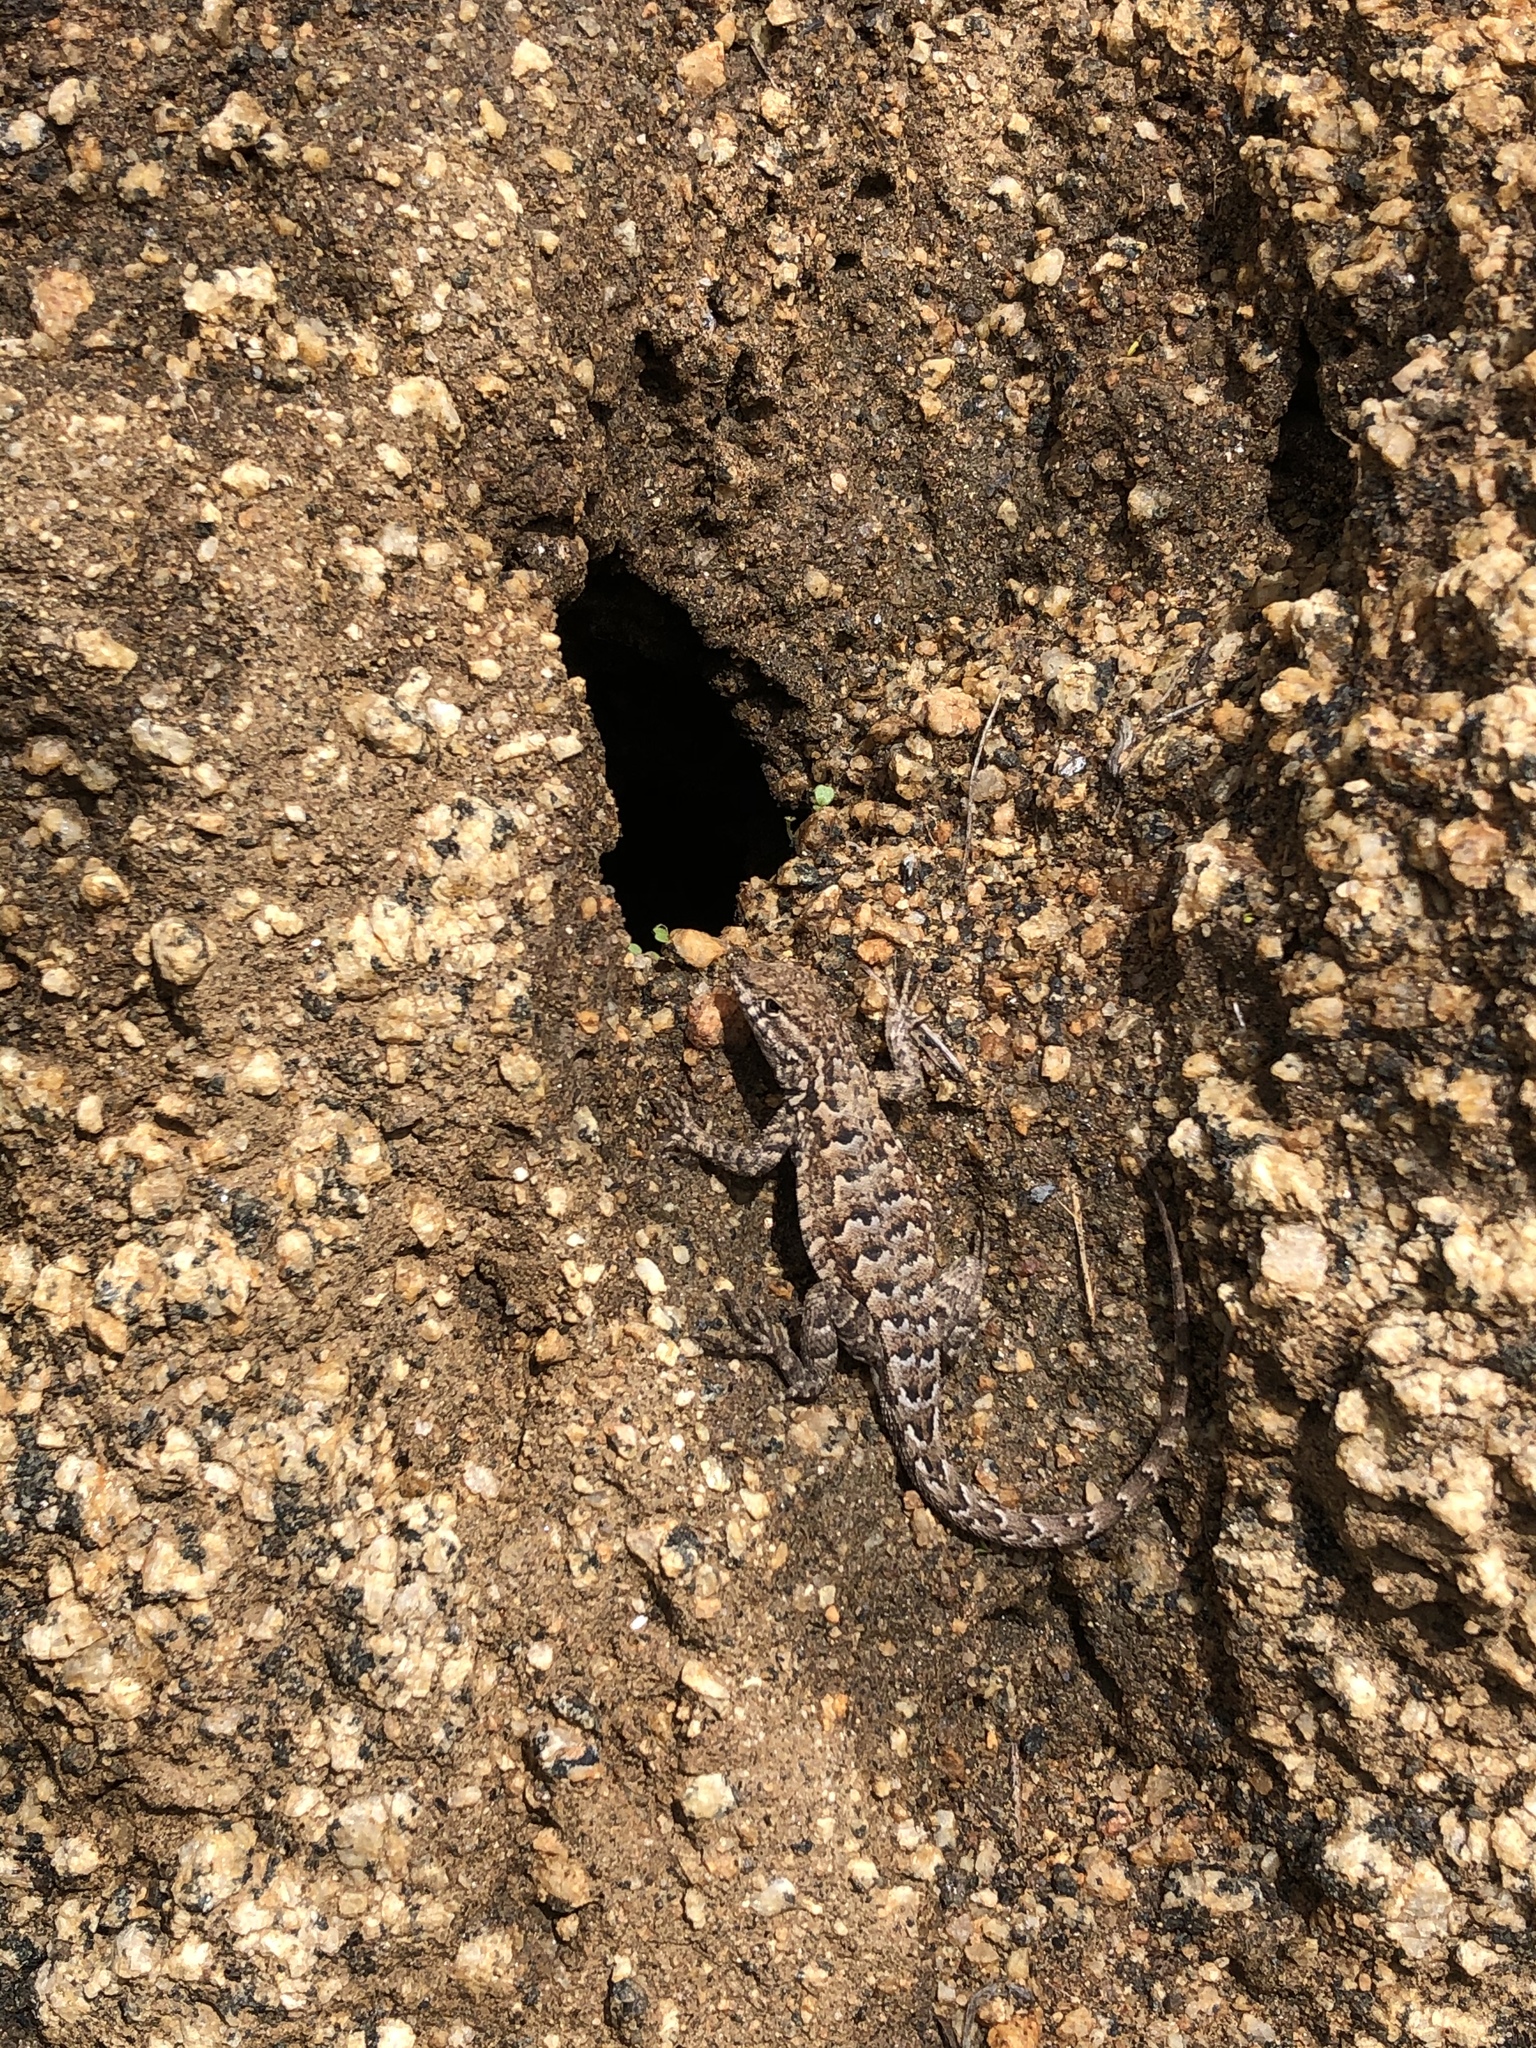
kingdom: Animalia
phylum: Chordata
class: Squamata
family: Phrynosomatidae
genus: Uta
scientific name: Uta stansburiana
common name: Side-blotched lizard
